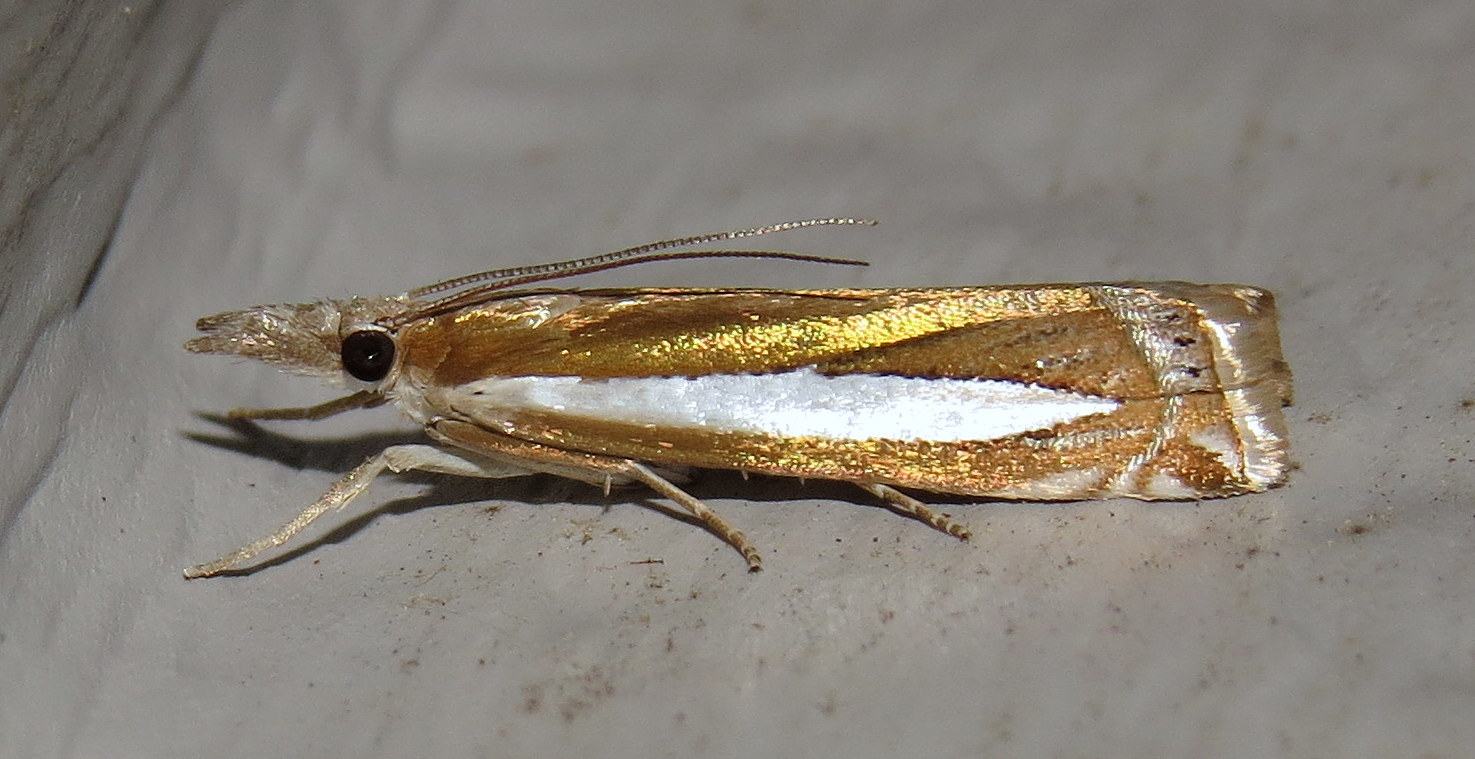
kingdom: Animalia
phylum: Arthropoda
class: Insecta
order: Lepidoptera
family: Crambidae
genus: Crambus
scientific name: Crambus praefectellus
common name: Common grass-veneer
